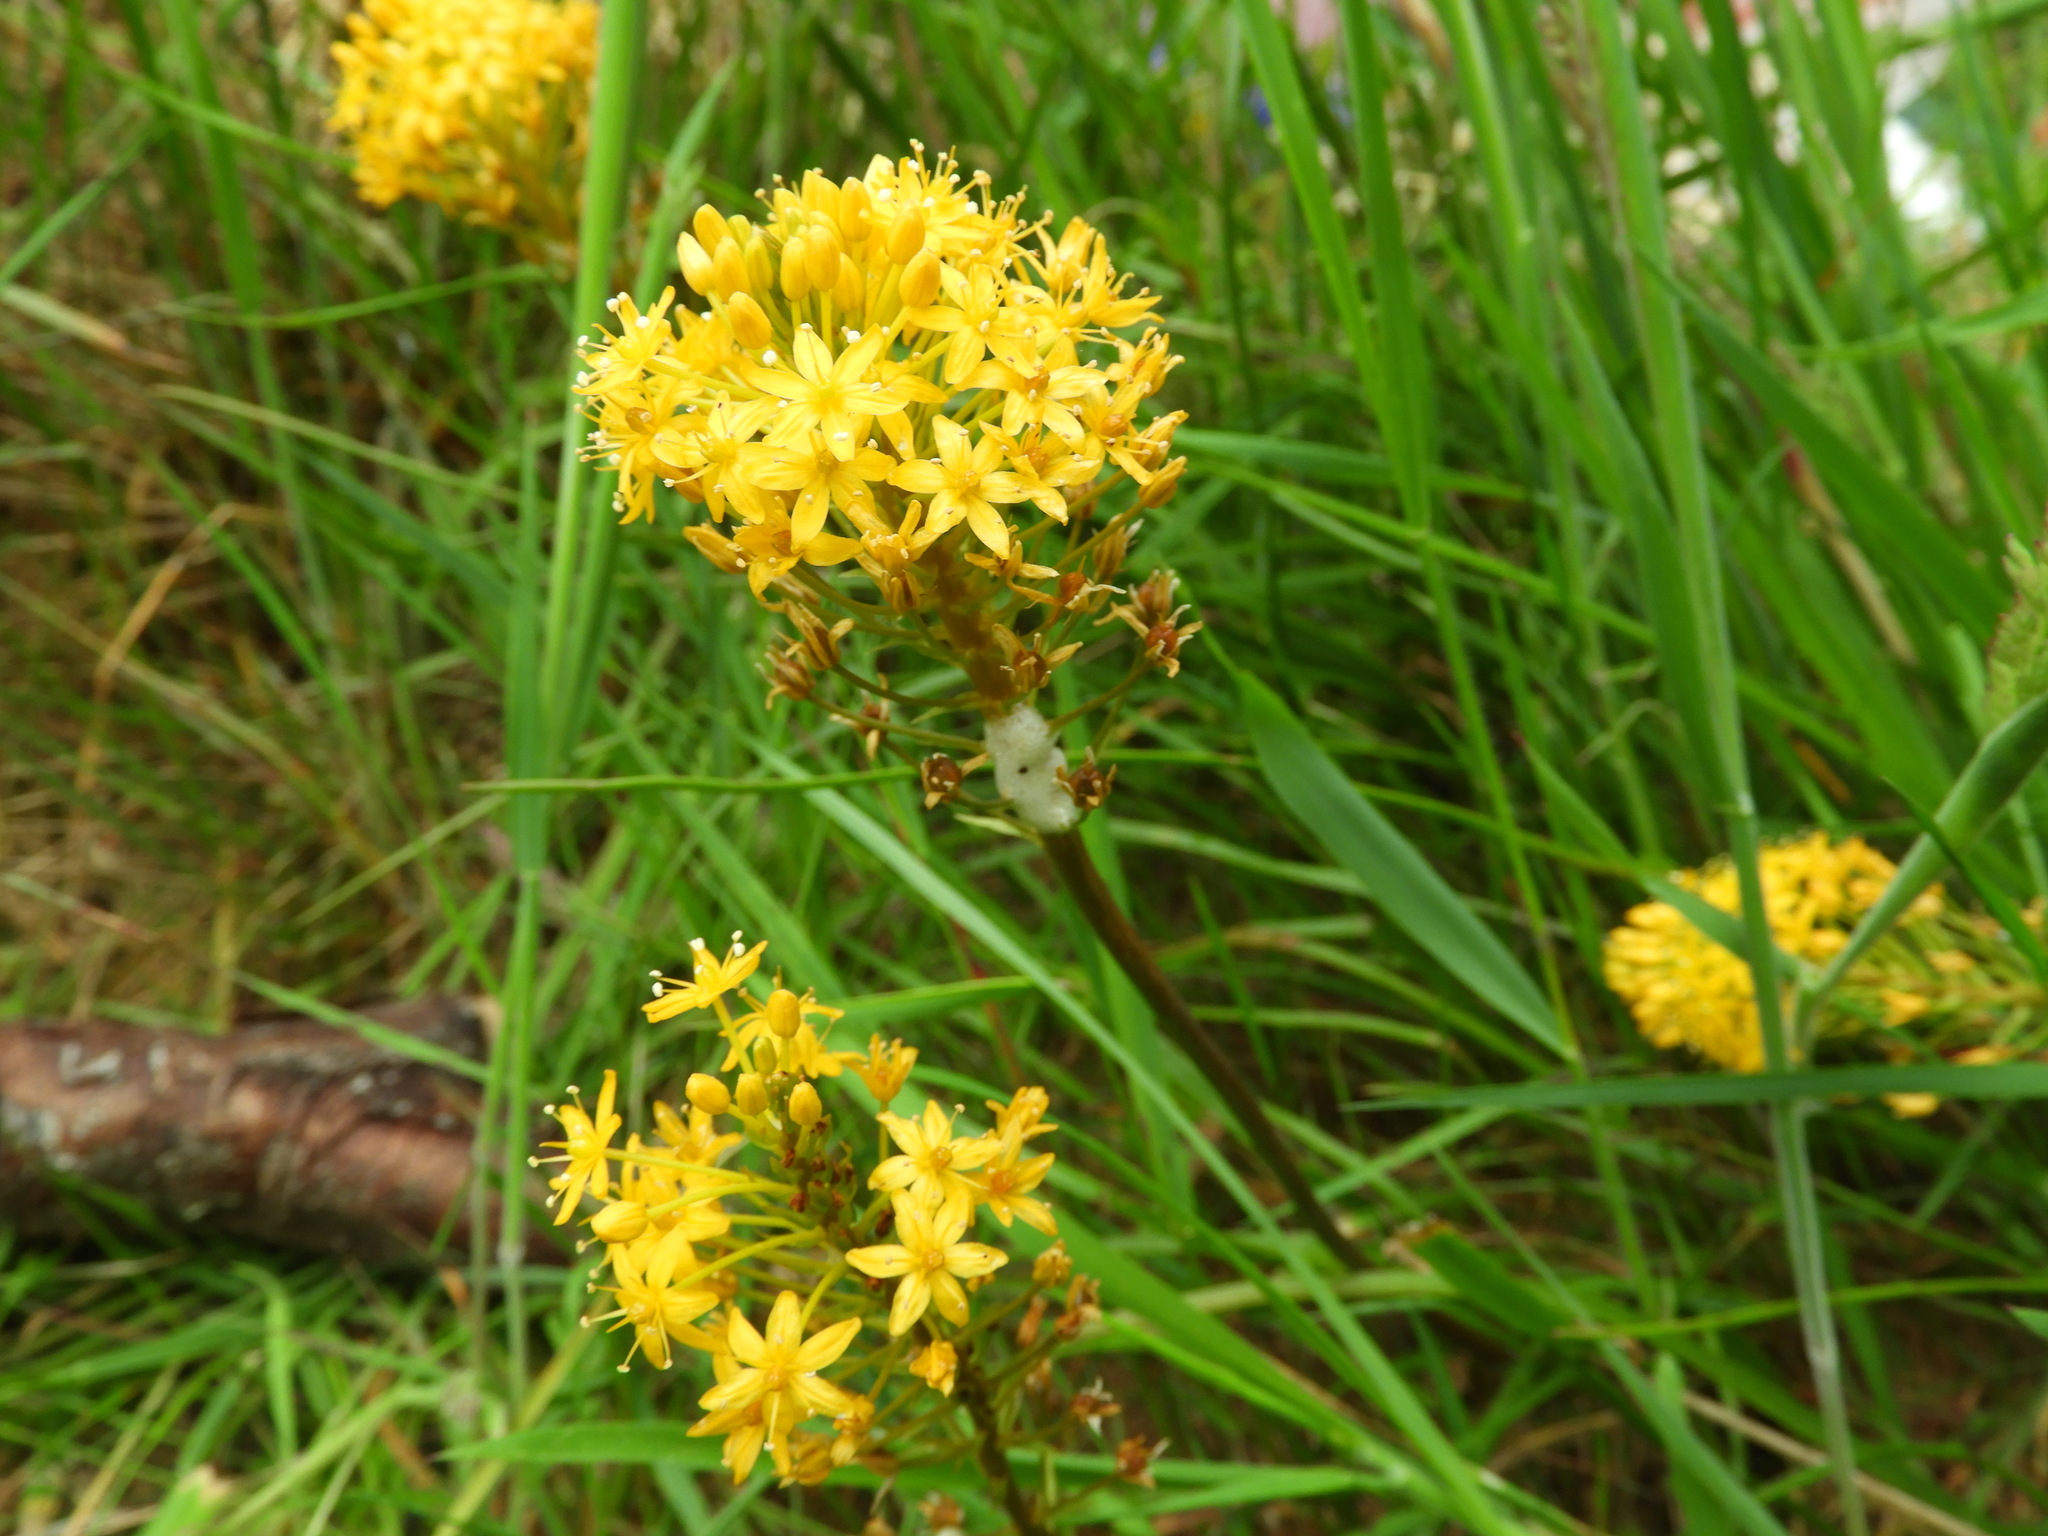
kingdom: Plantae
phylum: Tracheophyta
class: Liliopsida
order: Asparagales
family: Asphodelaceae
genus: Bulbinella
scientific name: Bulbinella angustifolia
